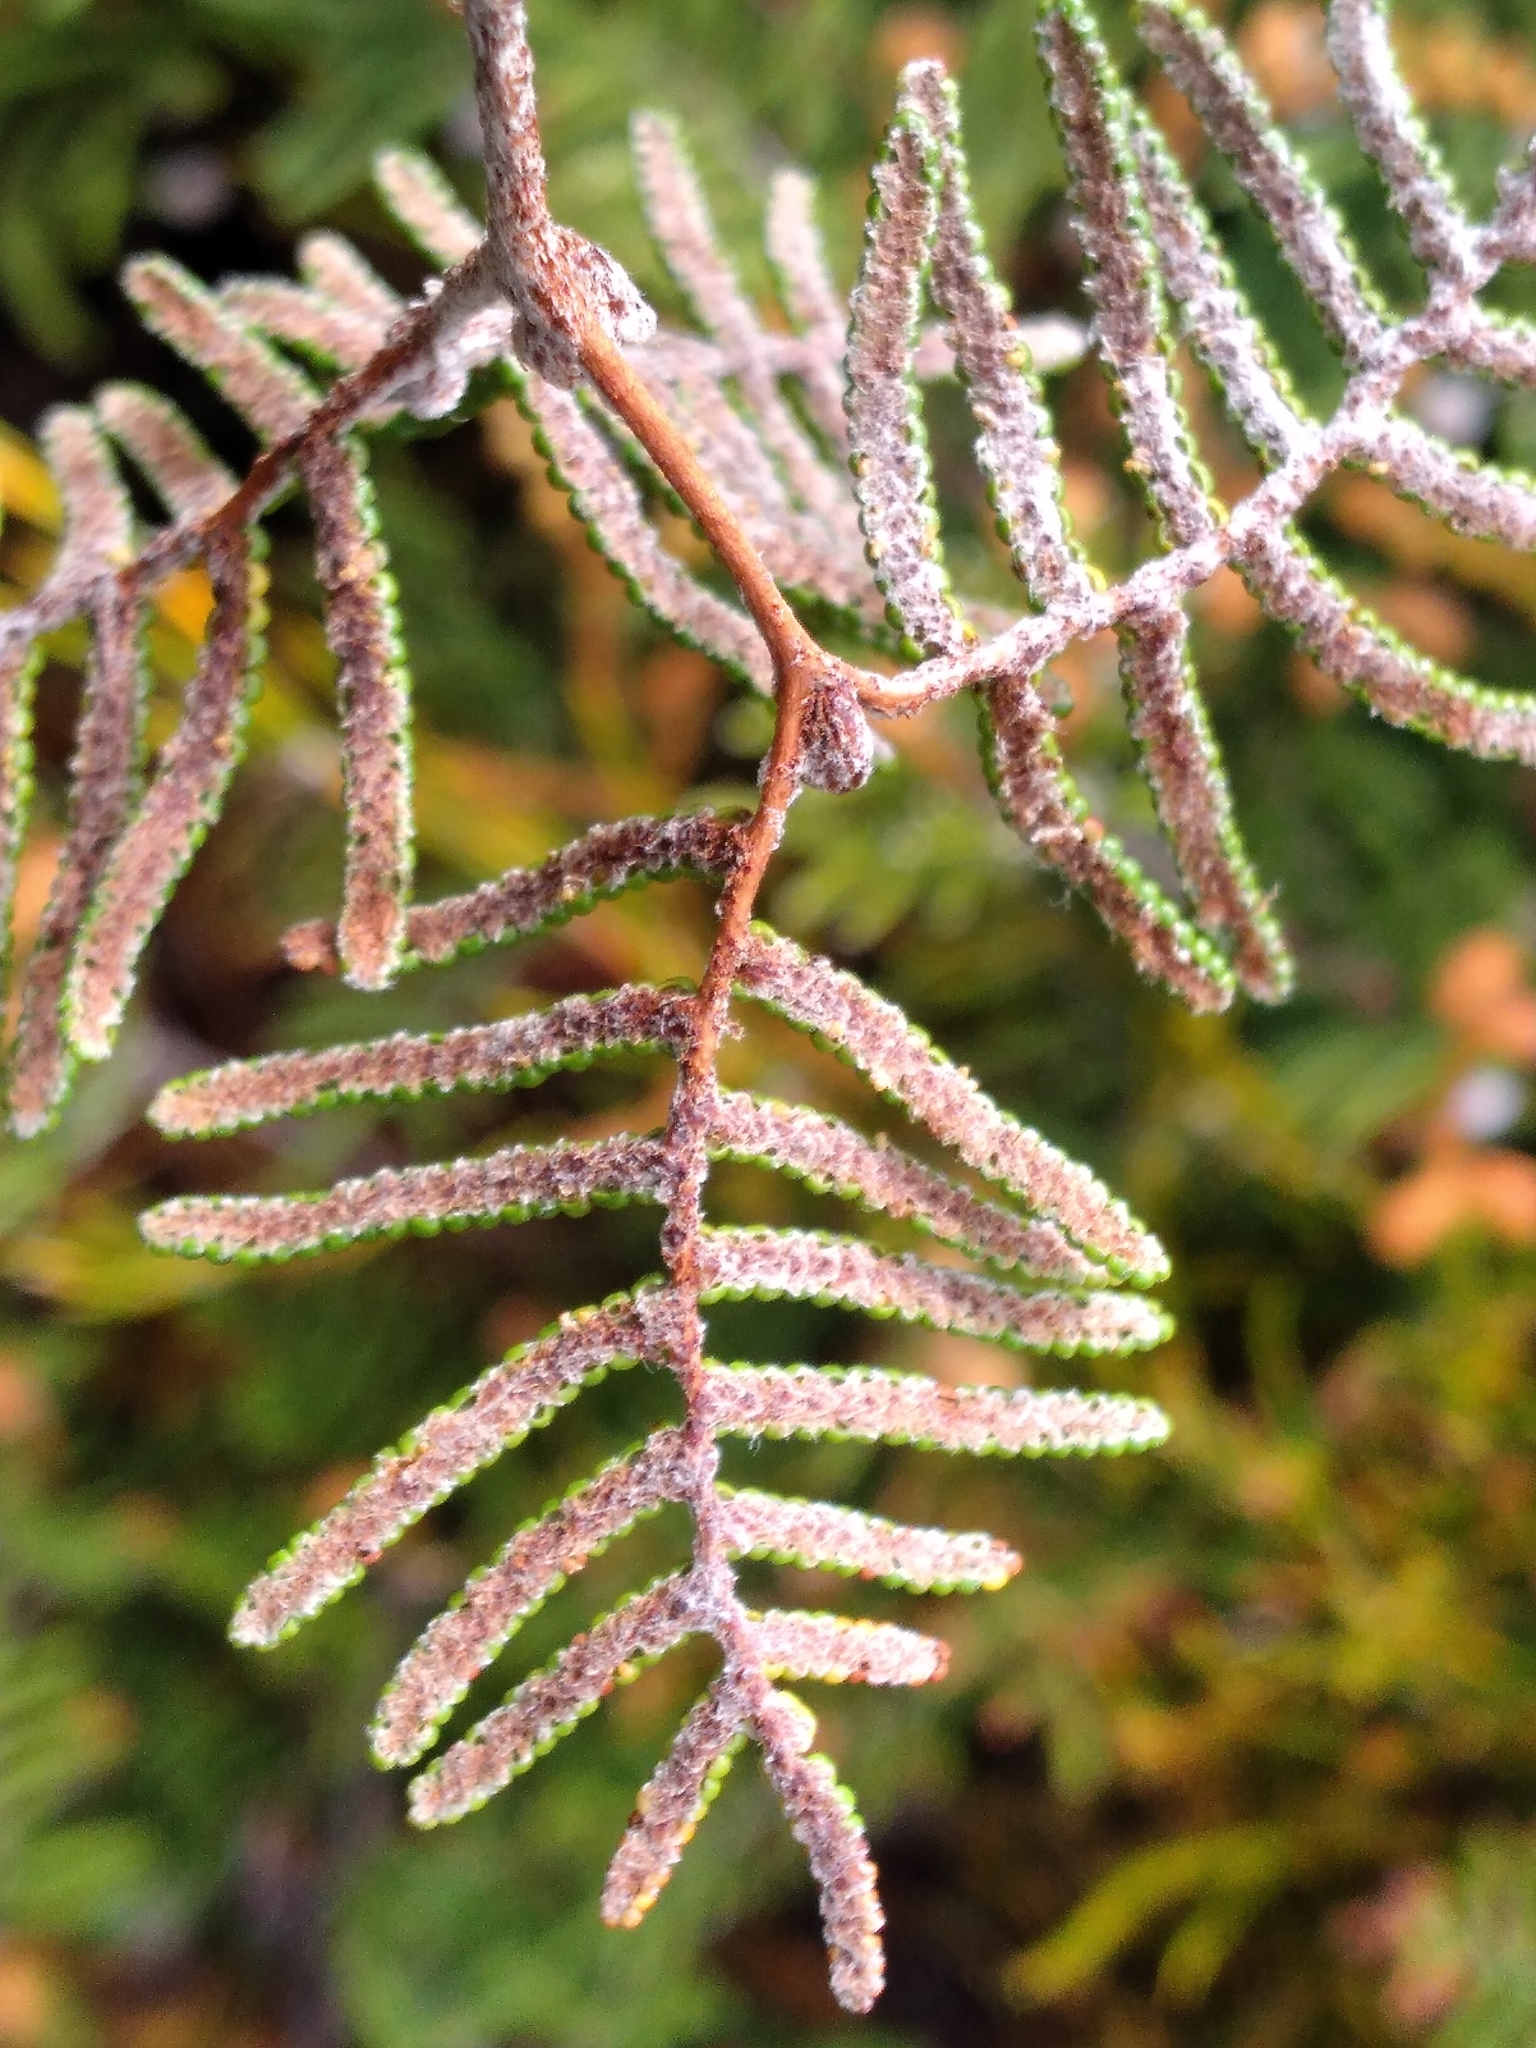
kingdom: Plantae
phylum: Tracheophyta
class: Polypodiopsida
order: Gleicheniales
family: Gleicheniaceae
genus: Gleichenia
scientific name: Gleichenia alpina
